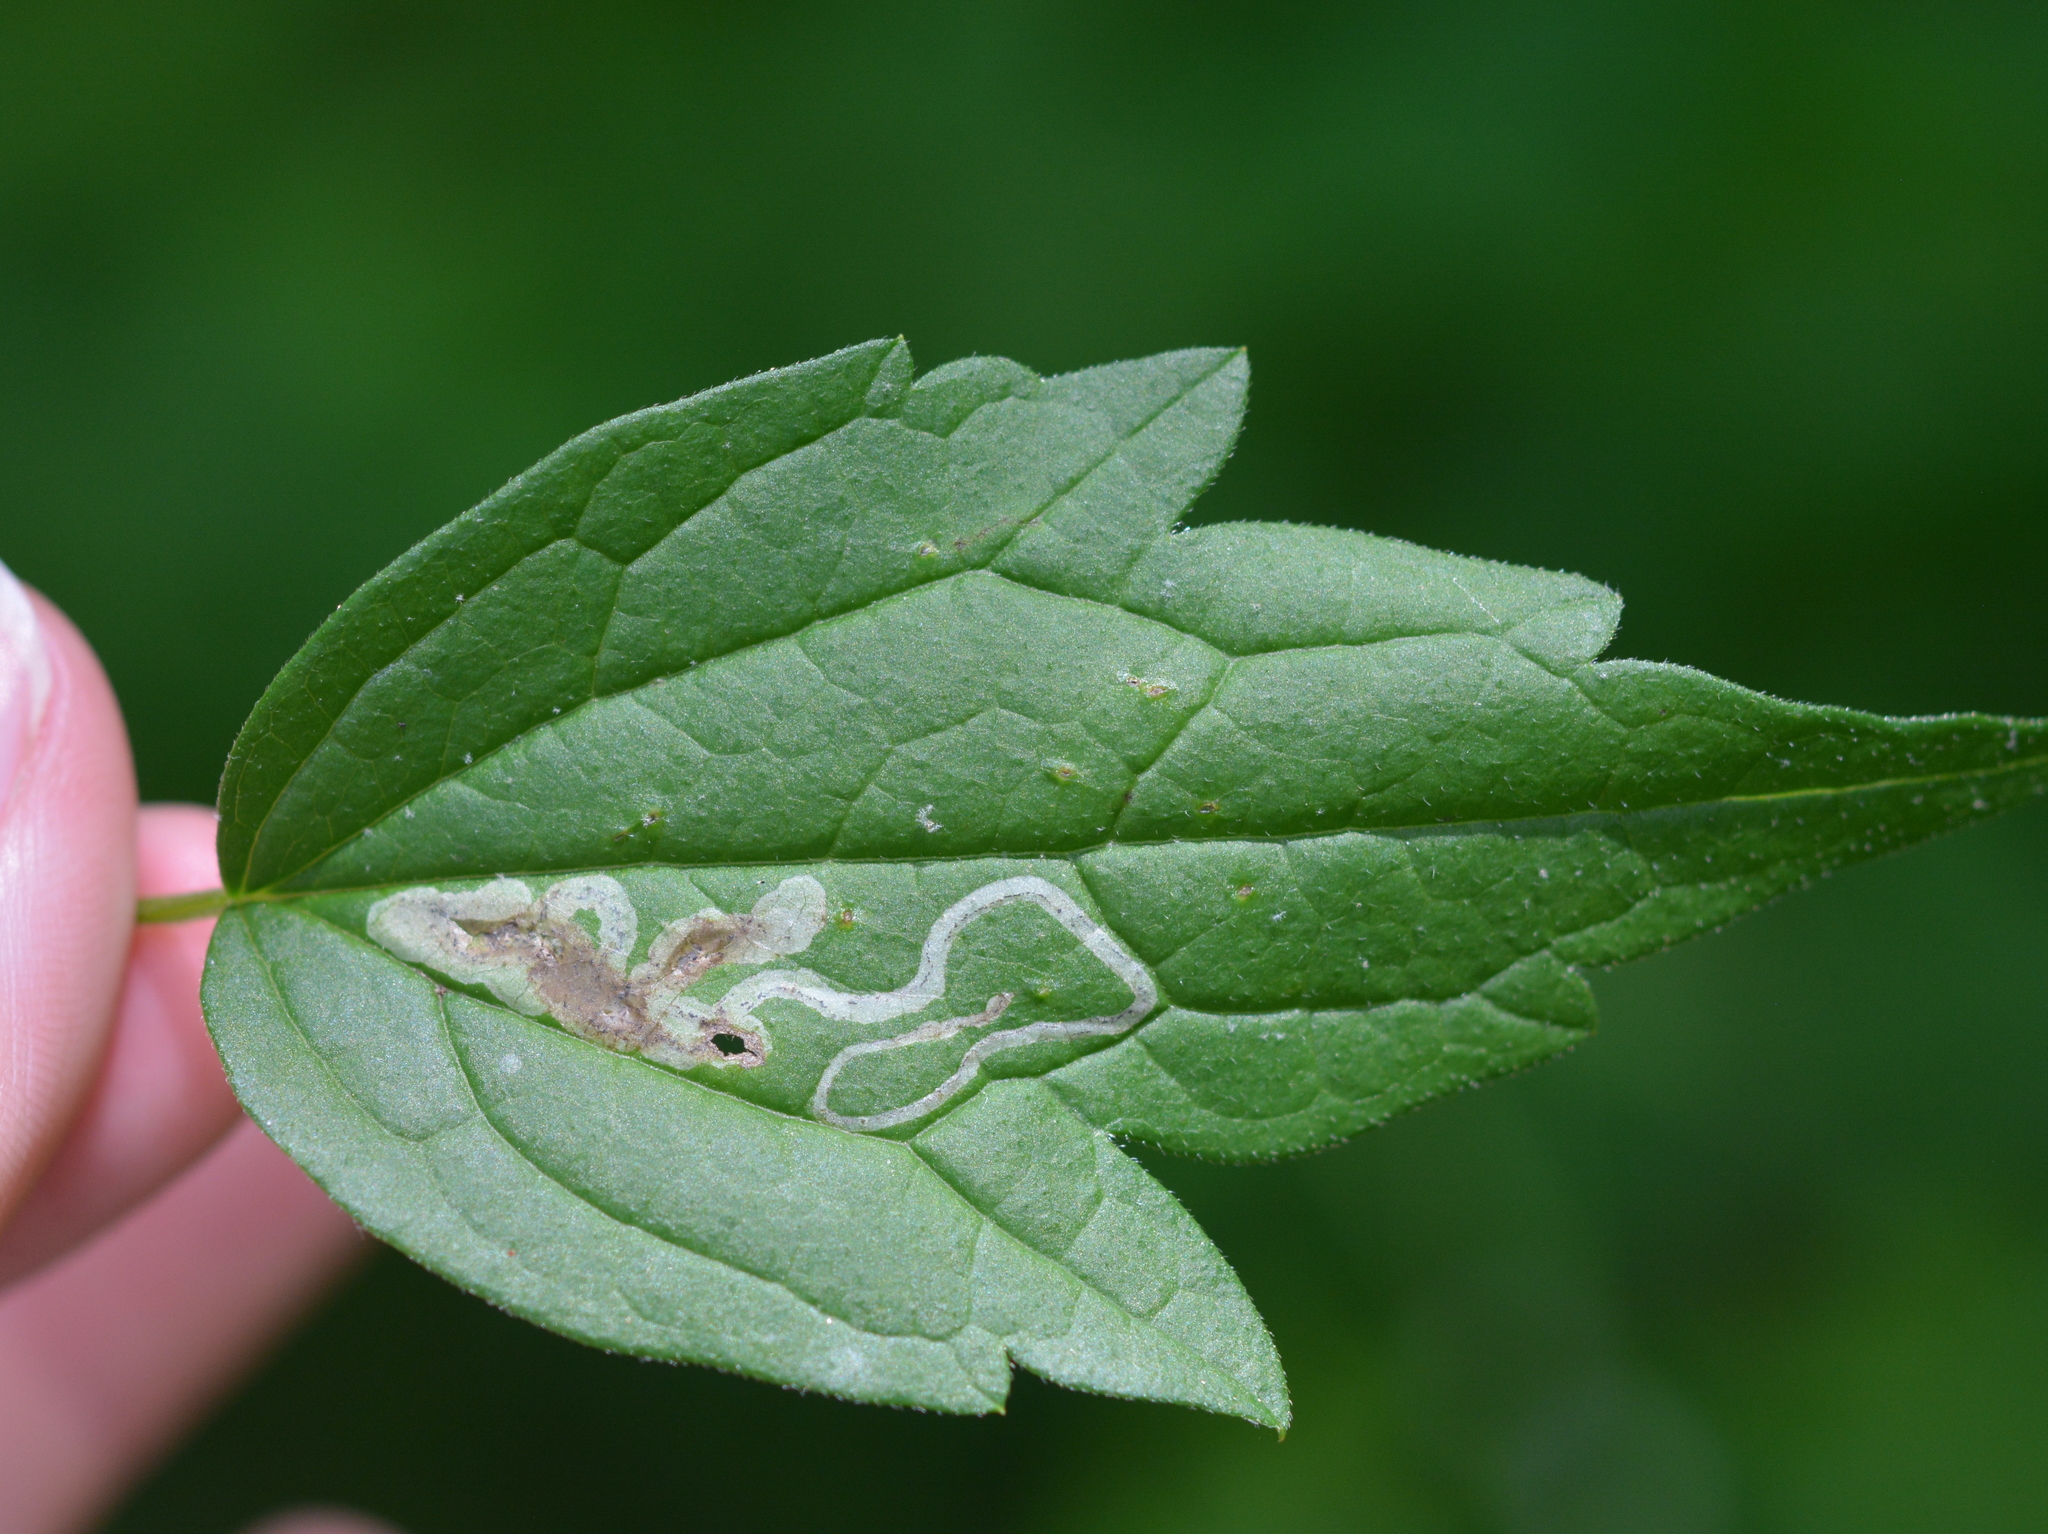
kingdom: Animalia
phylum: Arthropoda
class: Insecta
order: Diptera
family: Agromyzidae
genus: Phytomyza
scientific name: Phytomyza loewii
